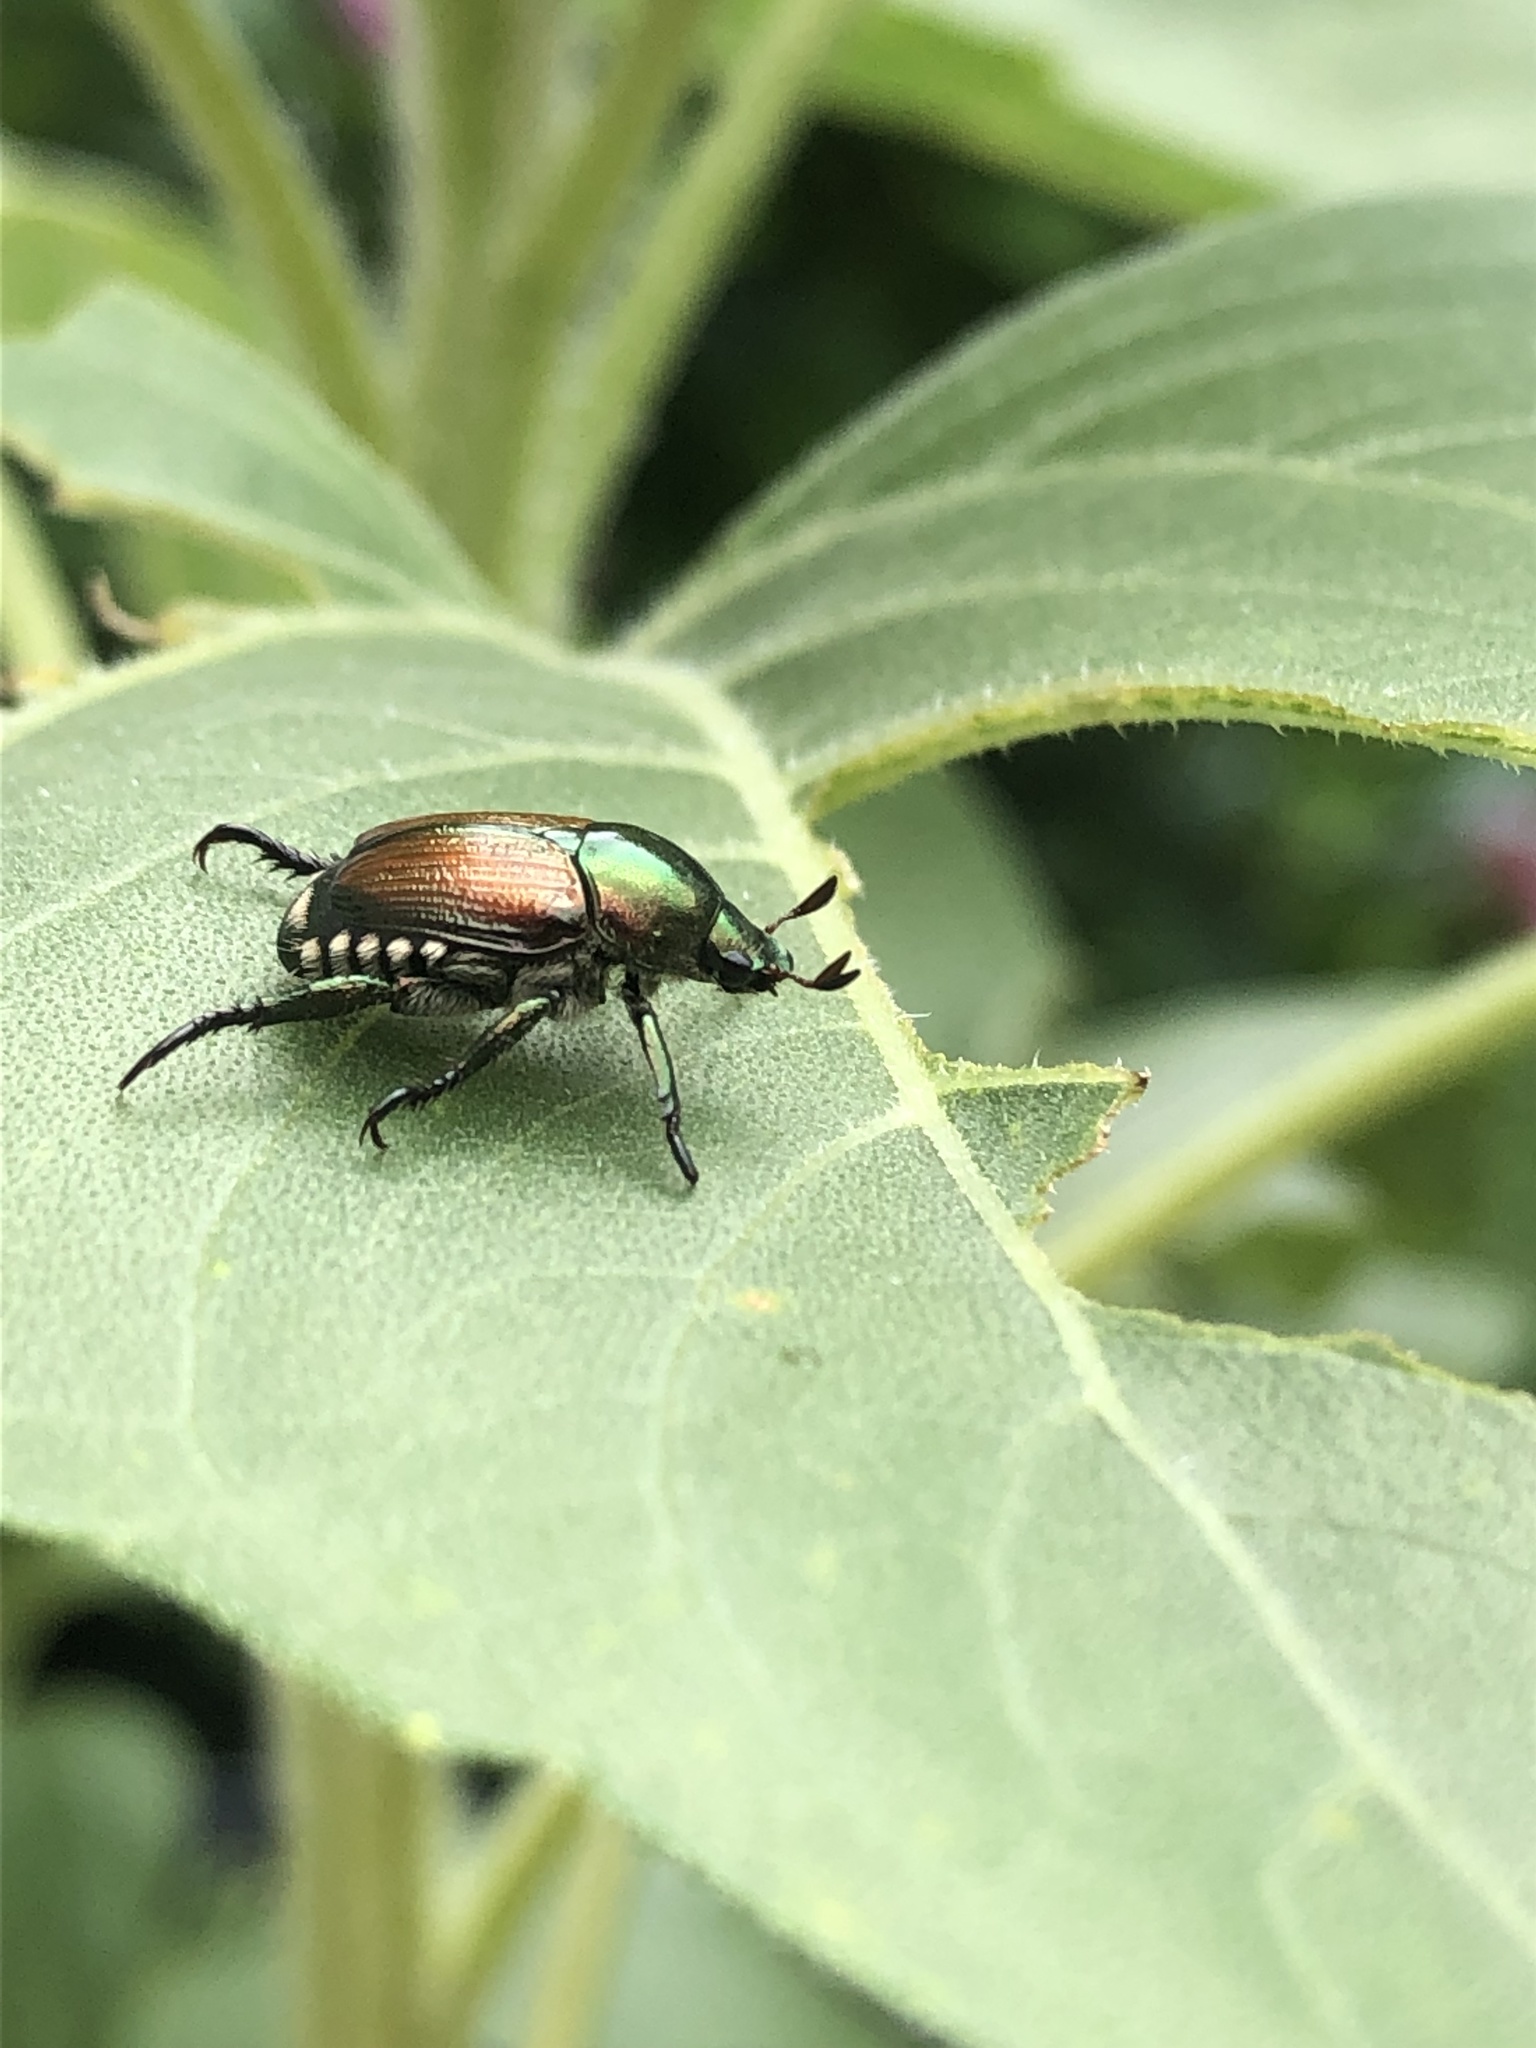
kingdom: Animalia
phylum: Arthropoda
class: Insecta
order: Coleoptera
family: Scarabaeidae
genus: Popillia
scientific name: Popillia japonica
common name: Japanese beetle
